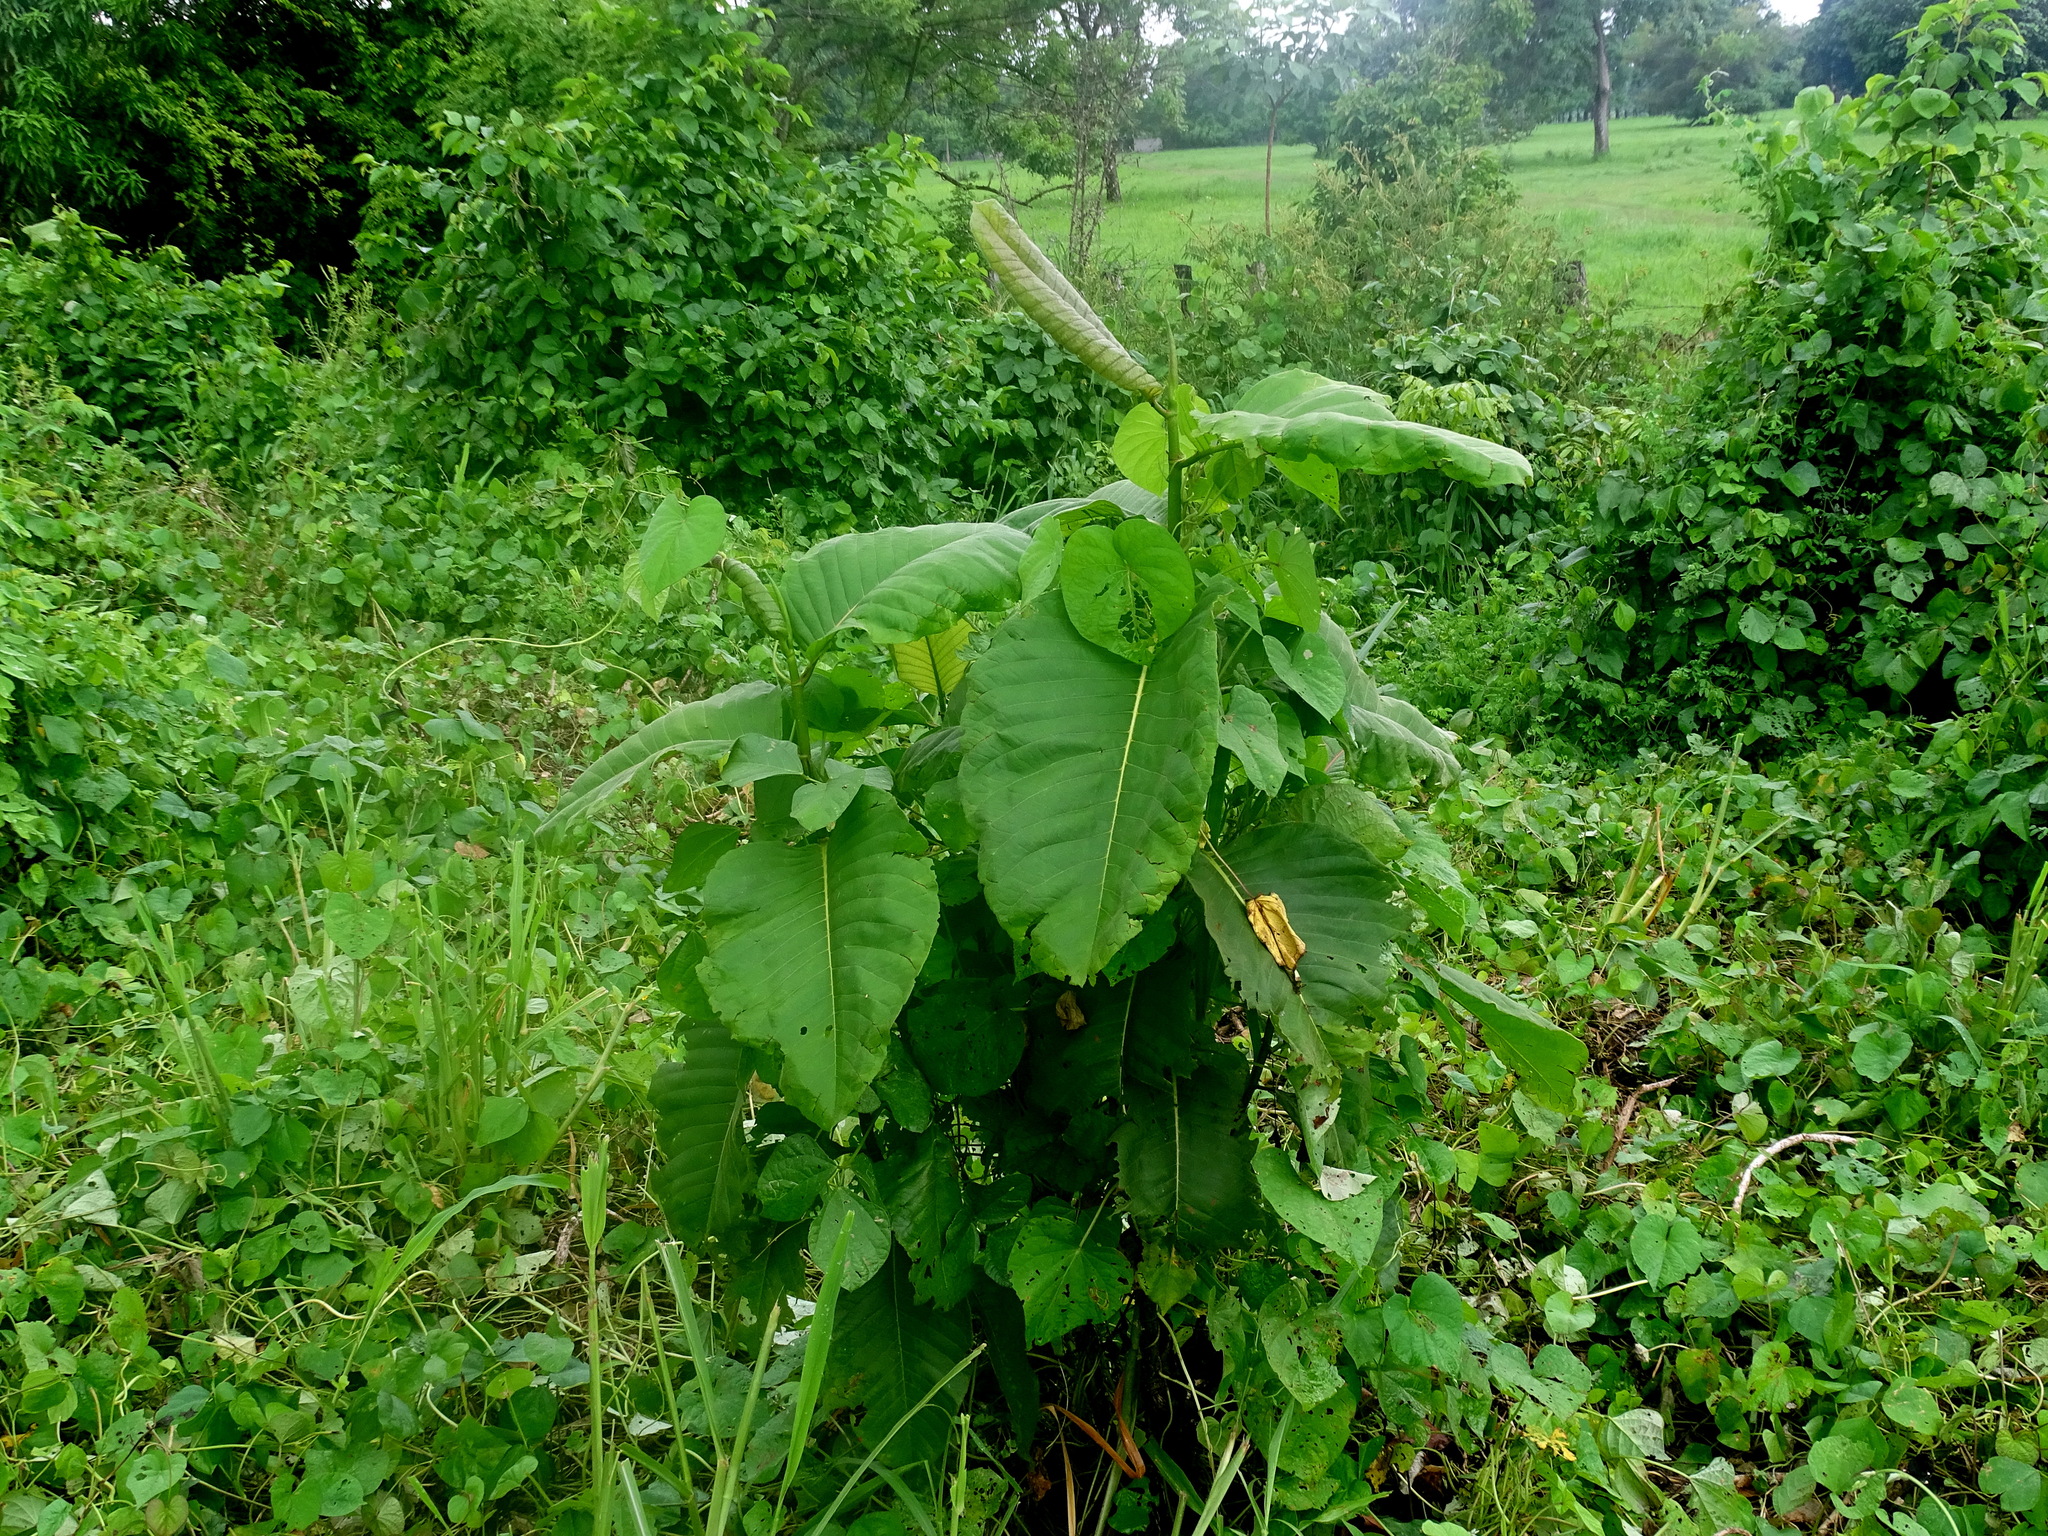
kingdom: Plantae
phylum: Tracheophyta
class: Magnoliopsida
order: Caryophyllales
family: Polygonaceae
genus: Triplaris
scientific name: Triplaris melaenodendron
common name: Long john
